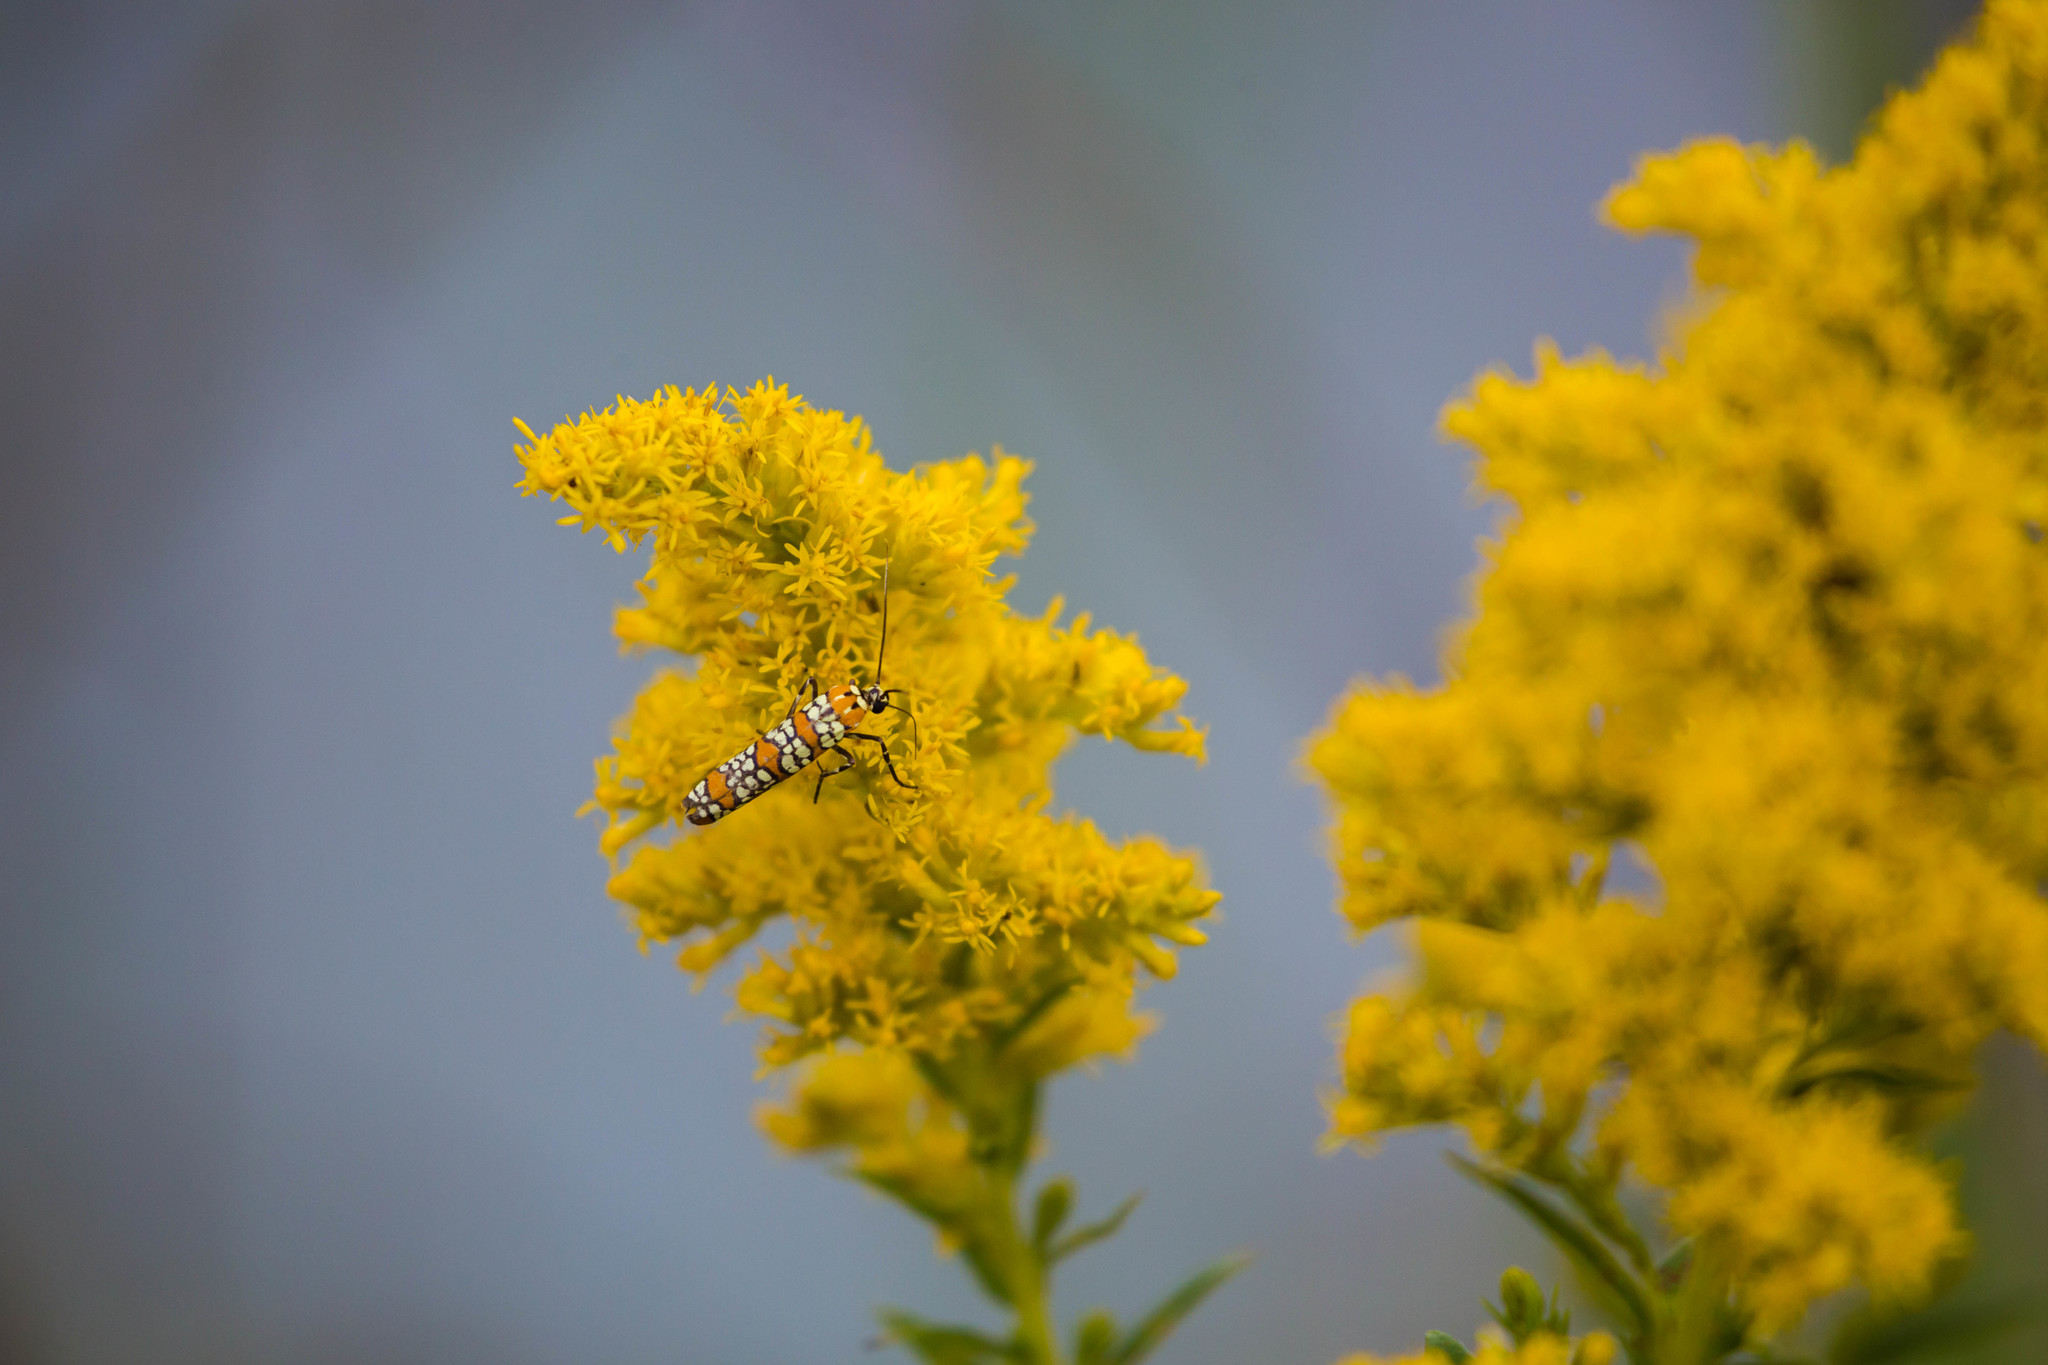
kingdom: Animalia
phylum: Arthropoda
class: Insecta
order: Lepidoptera
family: Attevidae
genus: Atteva
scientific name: Atteva punctella
